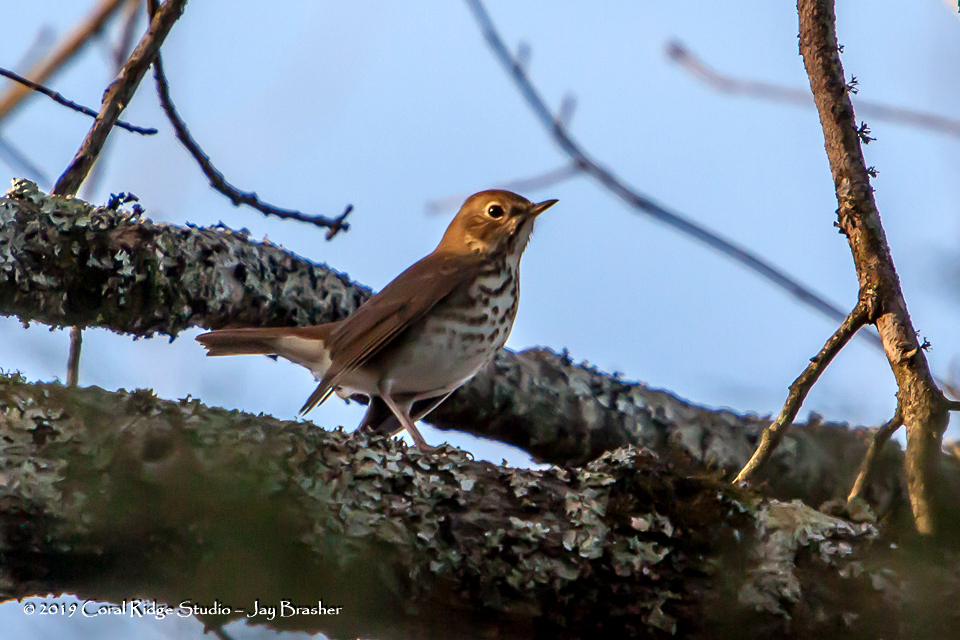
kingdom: Animalia
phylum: Chordata
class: Aves
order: Passeriformes
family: Turdidae
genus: Catharus
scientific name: Catharus guttatus
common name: Hermit thrush
